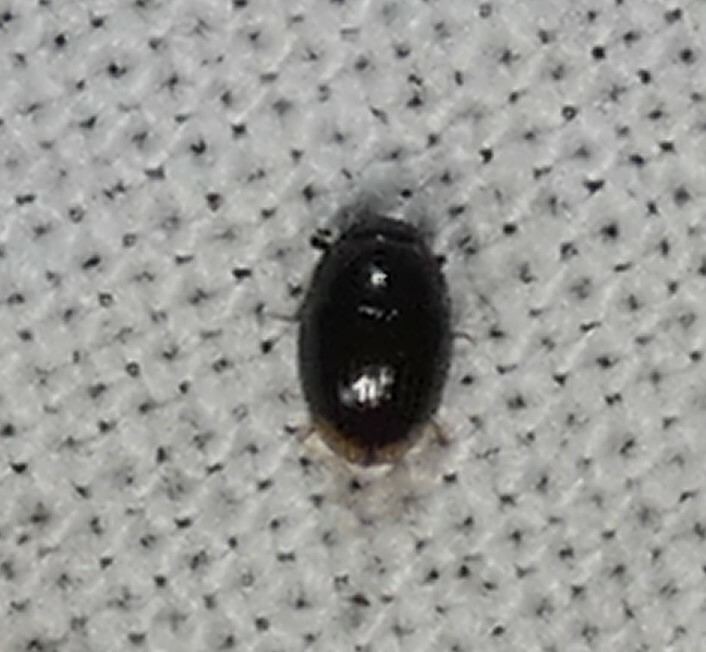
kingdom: Animalia
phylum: Arthropoda
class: Insecta
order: Coleoptera
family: Hydrophilidae
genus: Cercyon
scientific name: Cercyon
